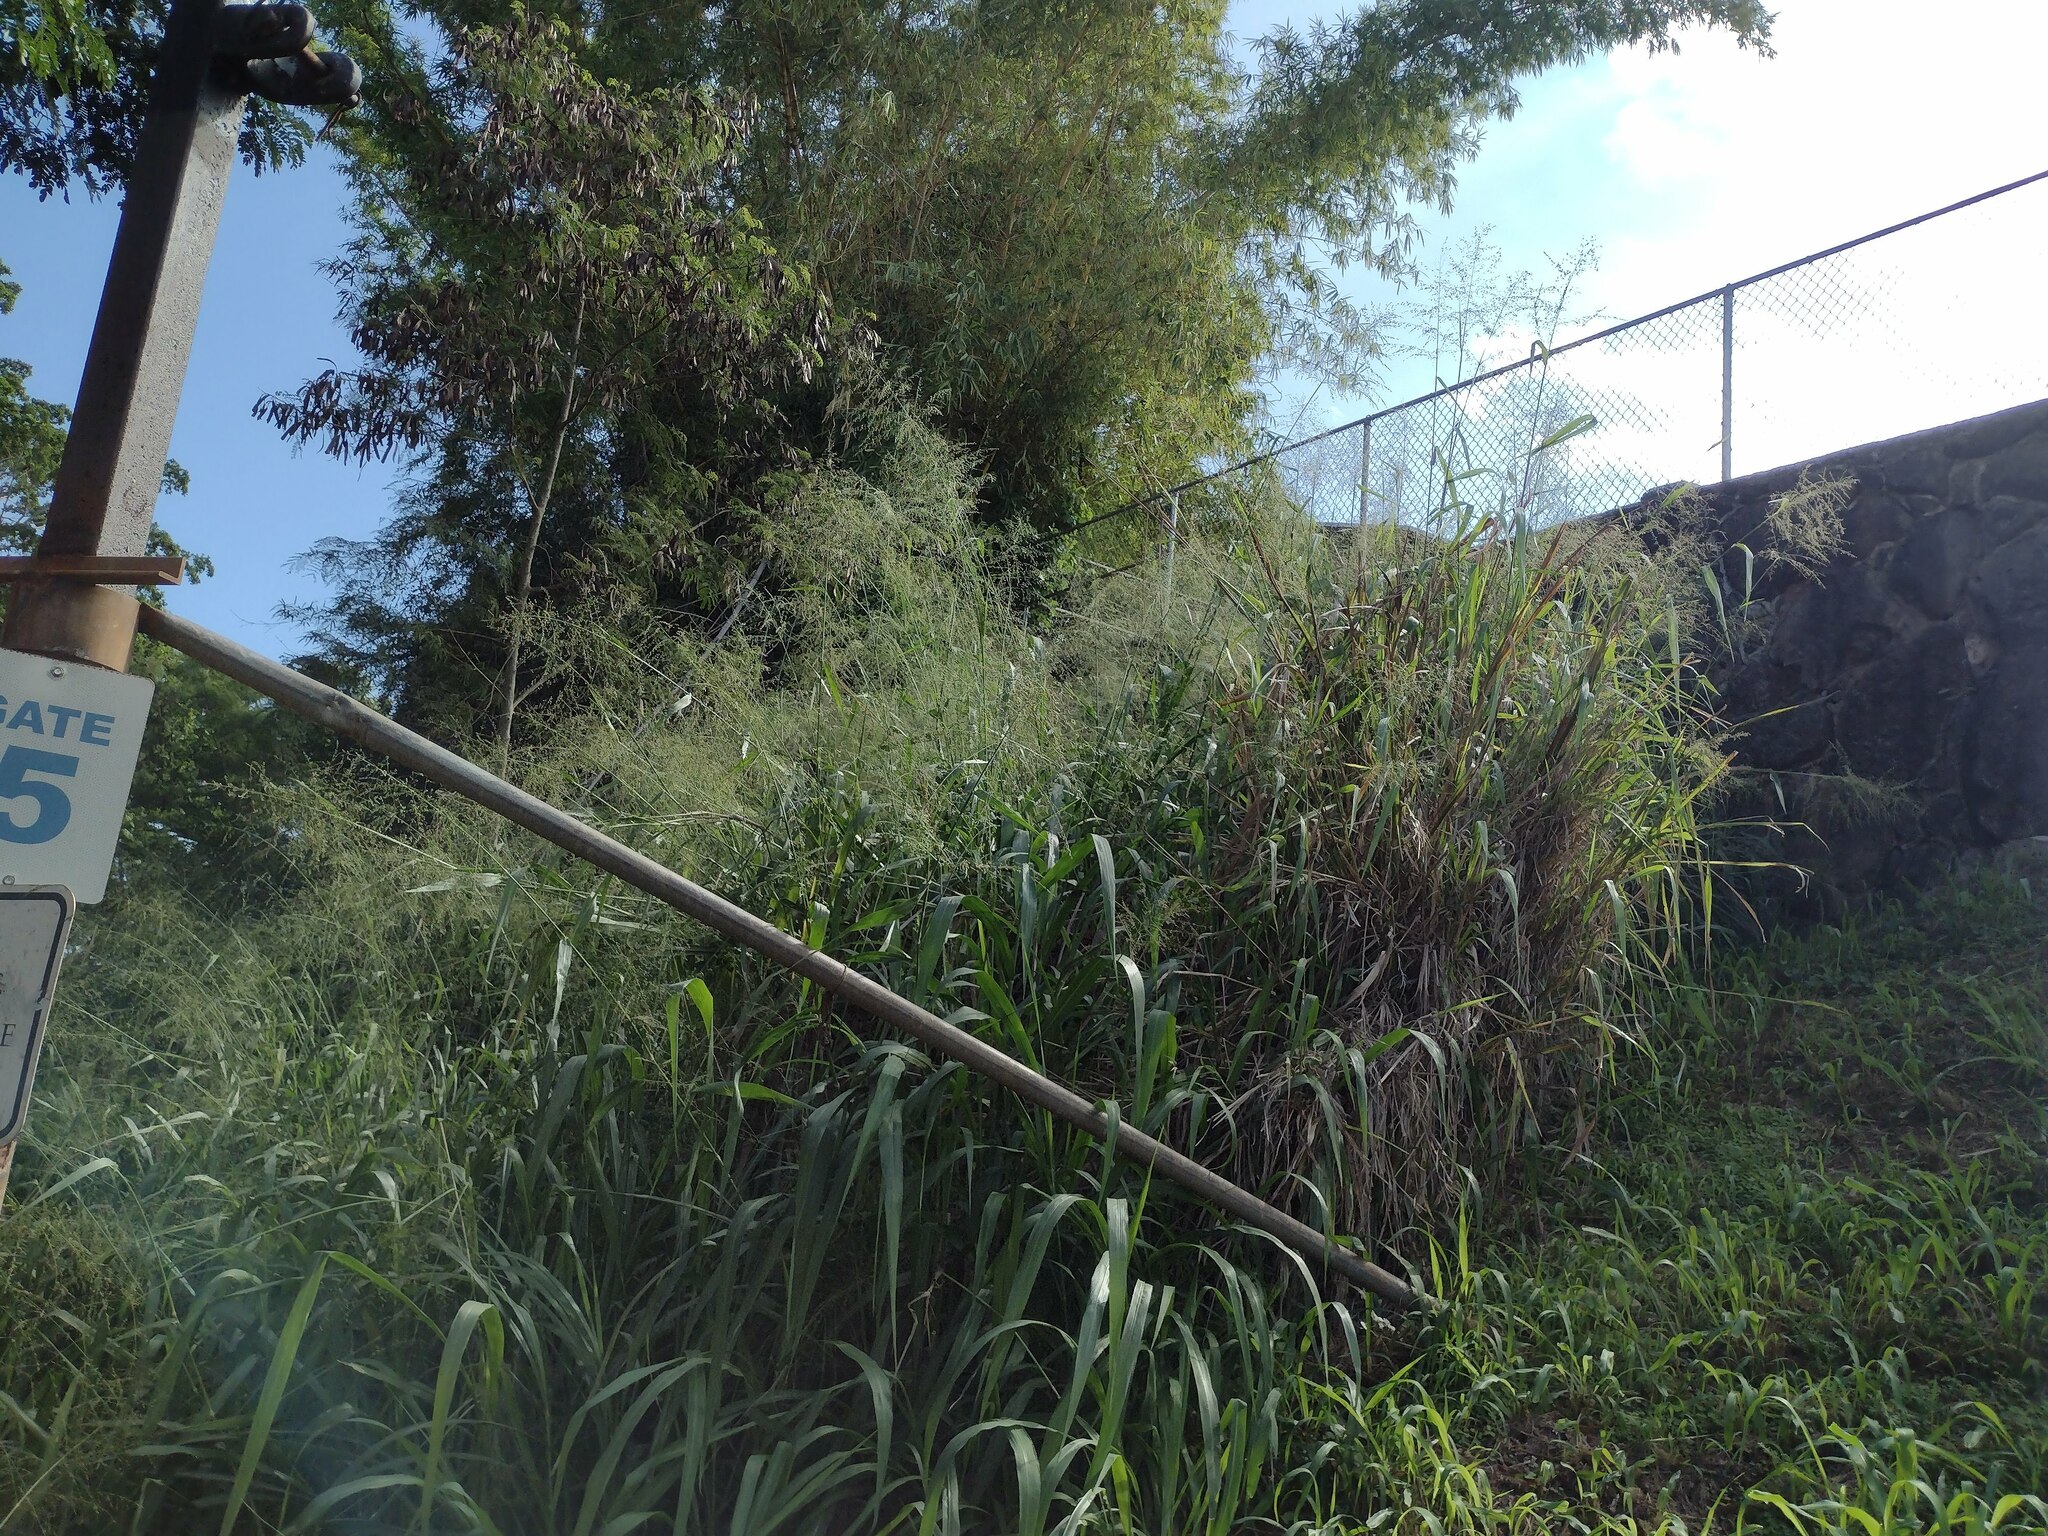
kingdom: Plantae
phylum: Tracheophyta
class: Liliopsida
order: Poales
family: Poaceae
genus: Megathyrsus
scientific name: Megathyrsus maximus
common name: Guineagrass
